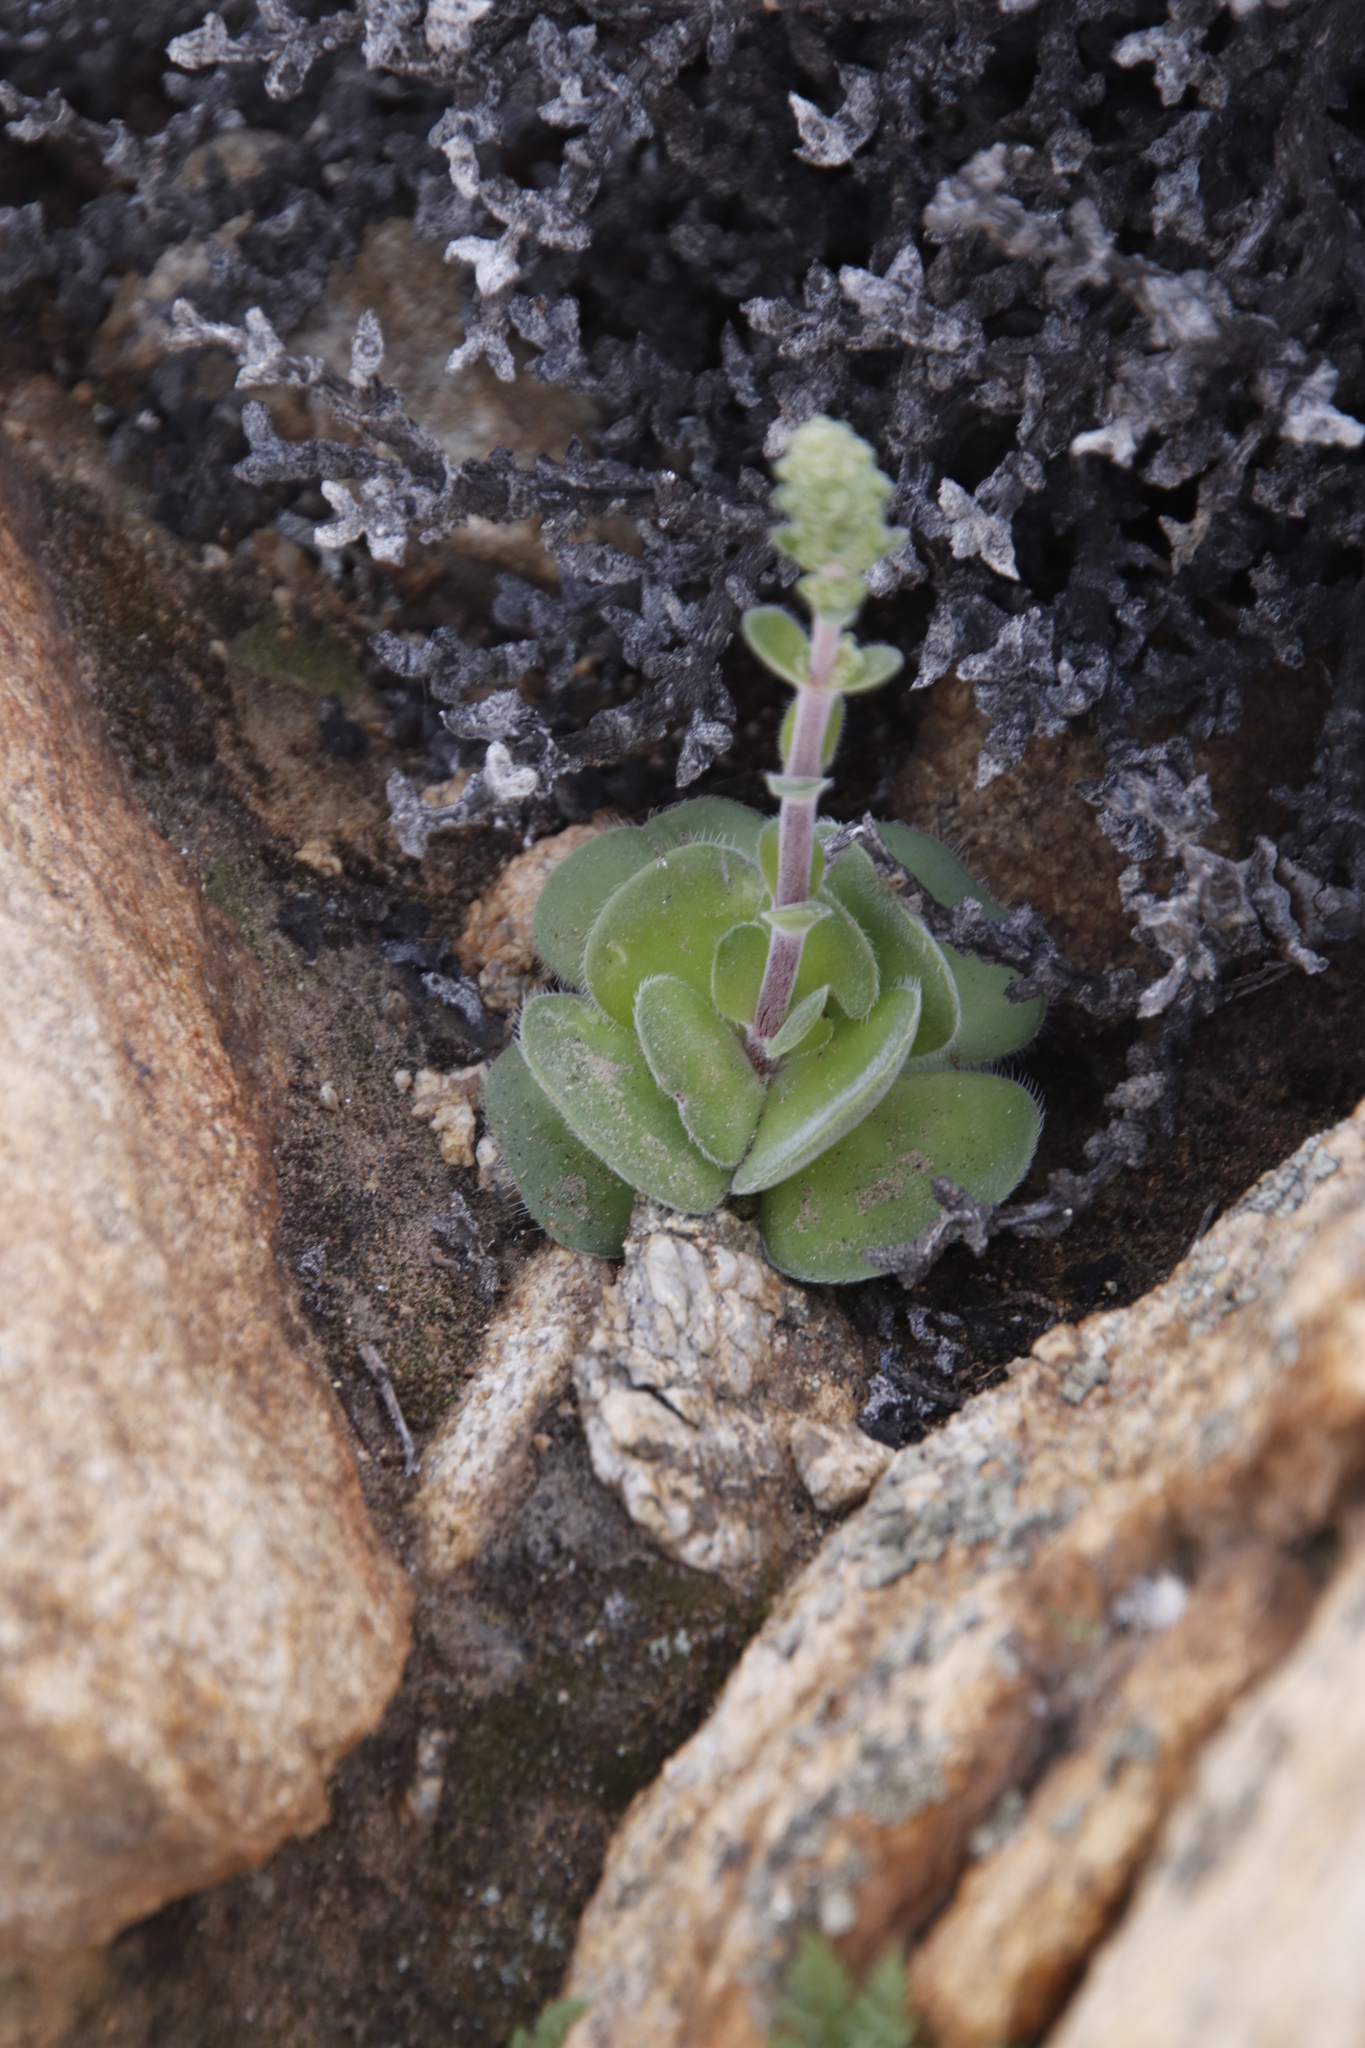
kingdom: Plantae
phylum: Tracheophyta
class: Magnoliopsida
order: Saxifragales
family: Crassulaceae
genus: Crassula
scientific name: Crassula tomentosa
